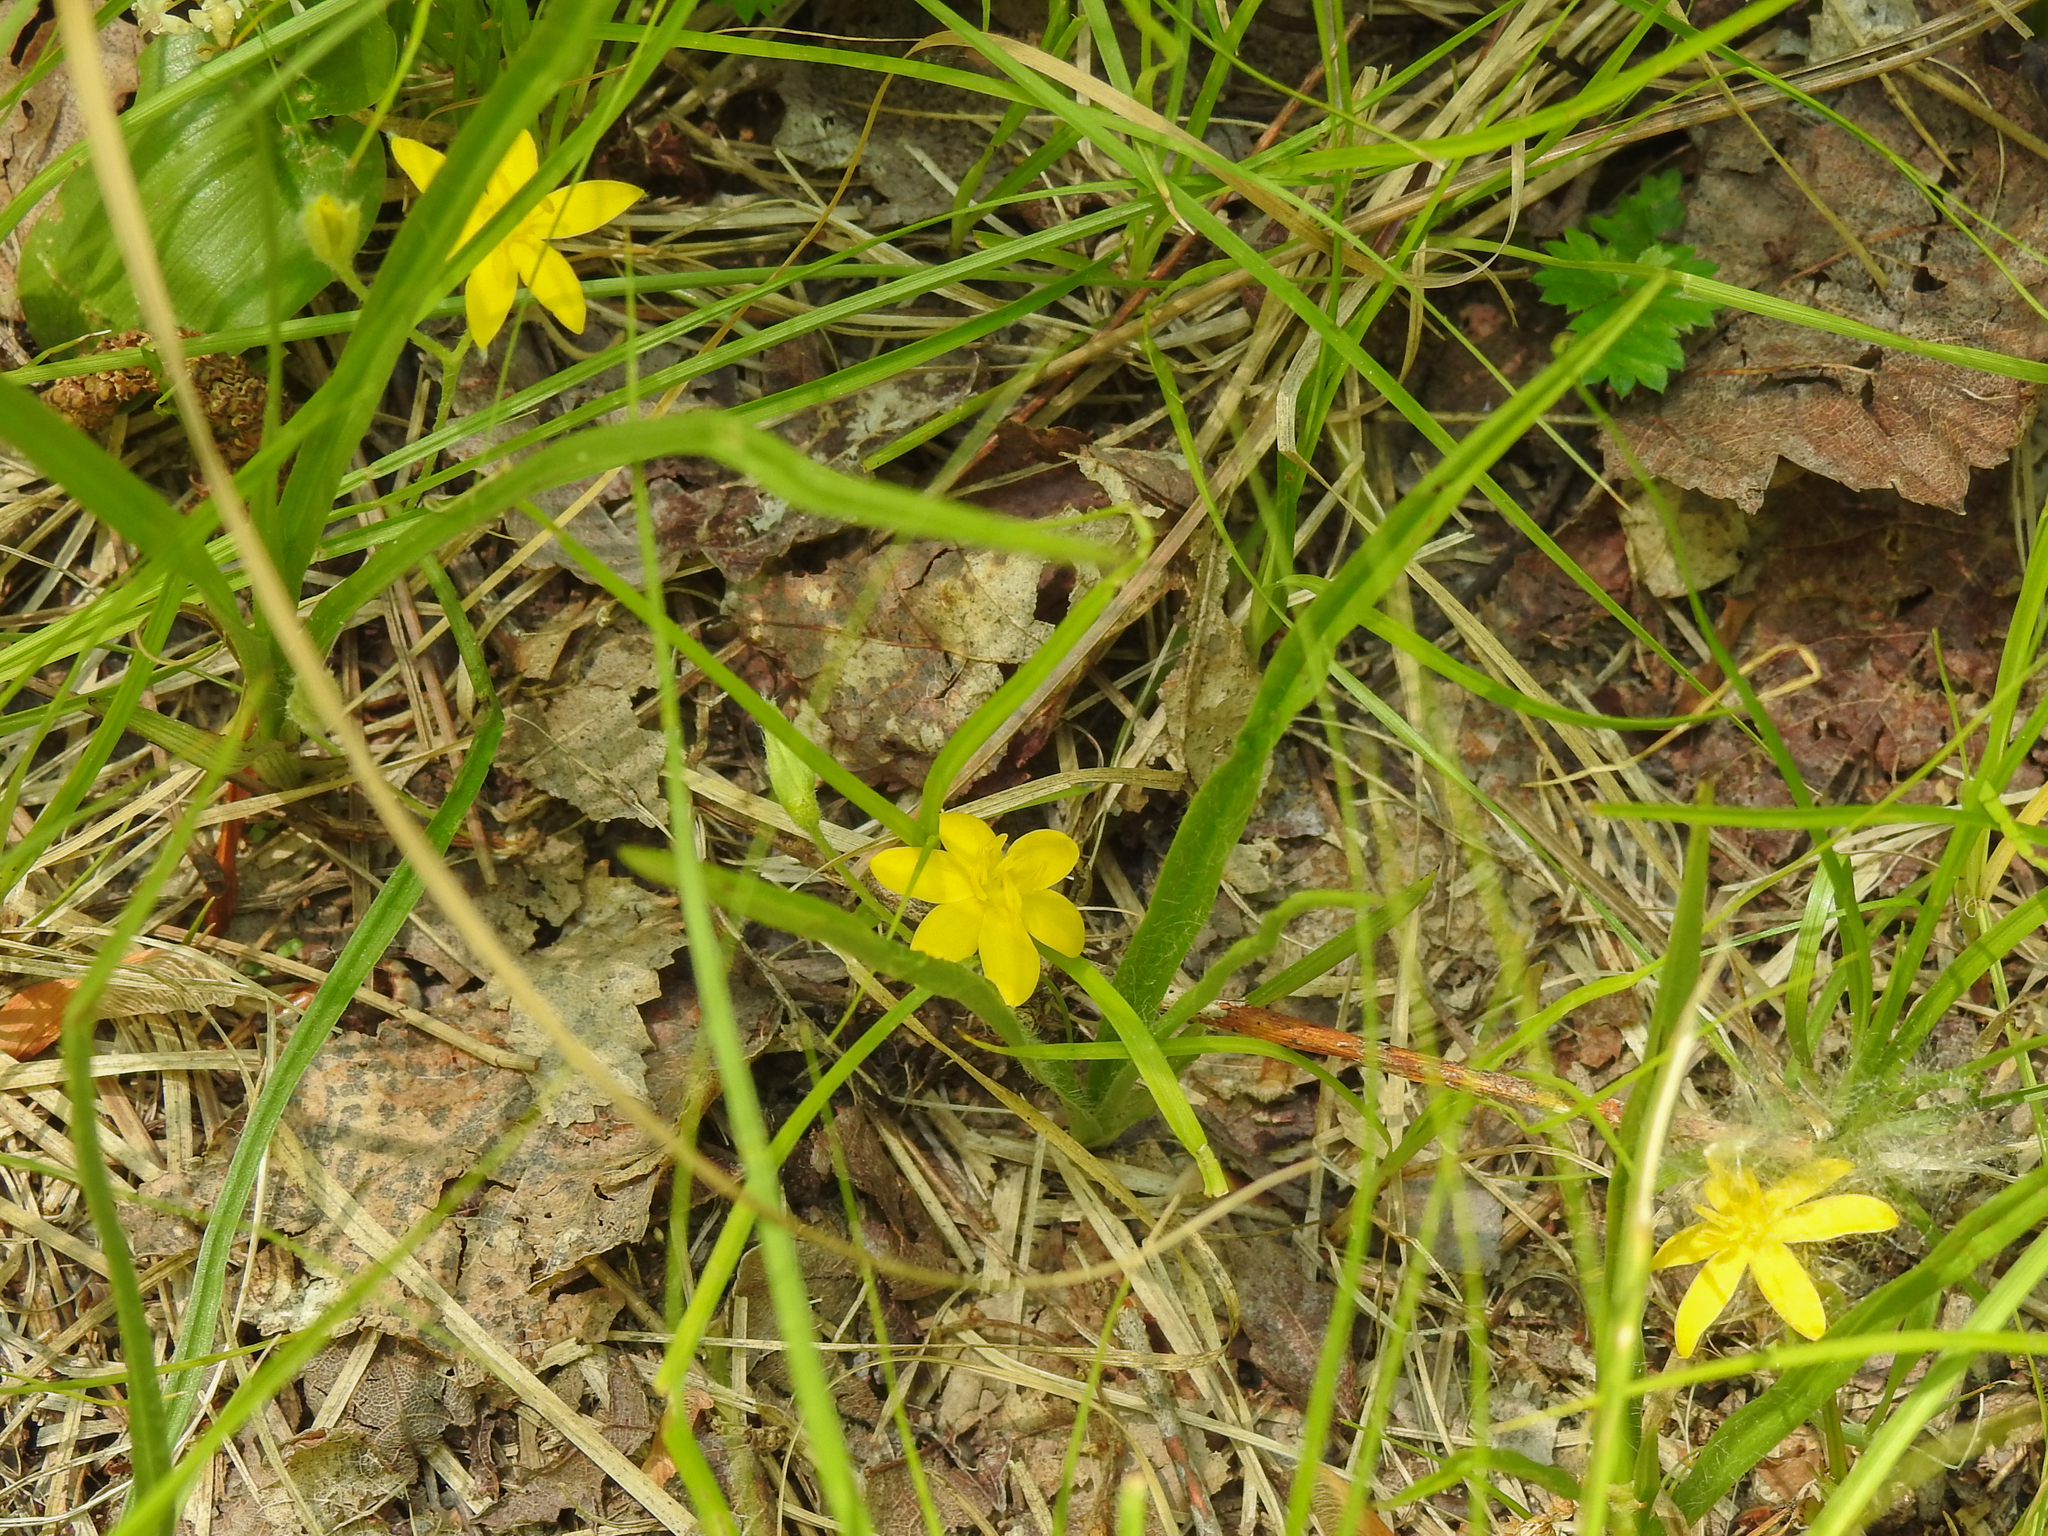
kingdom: Plantae
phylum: Tracheophyta
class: Liliopsida
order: Asparagales
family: Hypoxidaceae
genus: Hypoxis
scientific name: Hypoxis hirsuta
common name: Common goldstar
